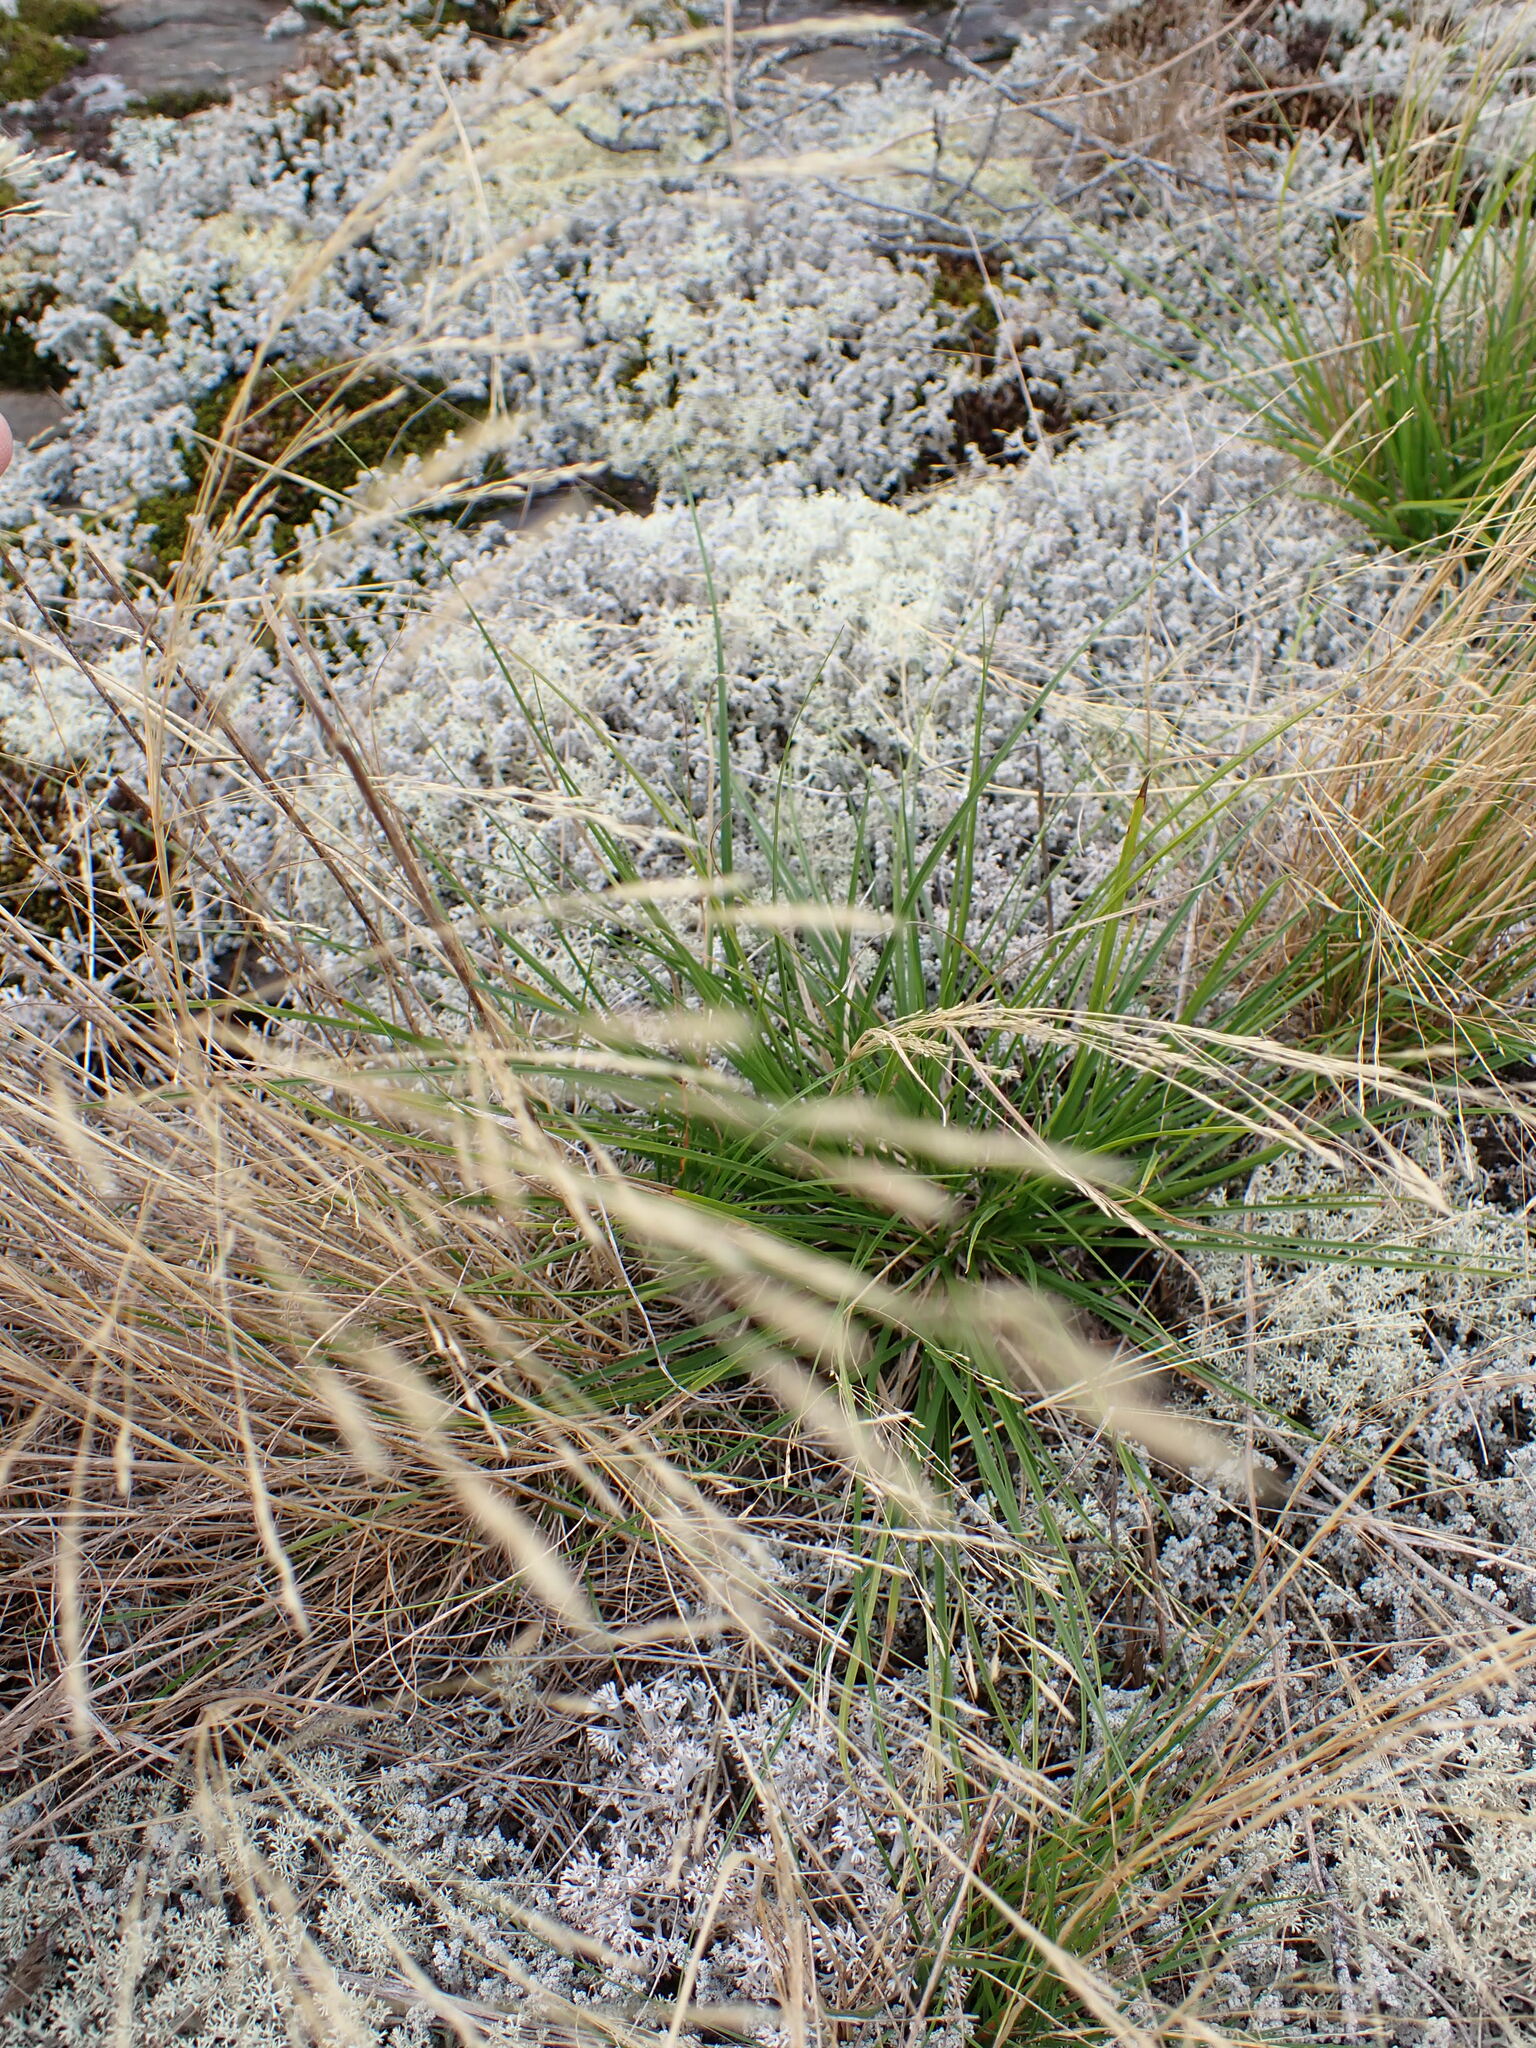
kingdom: Plantae
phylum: Tracheophyta
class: Liliopsida
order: Poales
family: Poaceae
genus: Agrostis
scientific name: Agrostis scabra
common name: Rough bent
